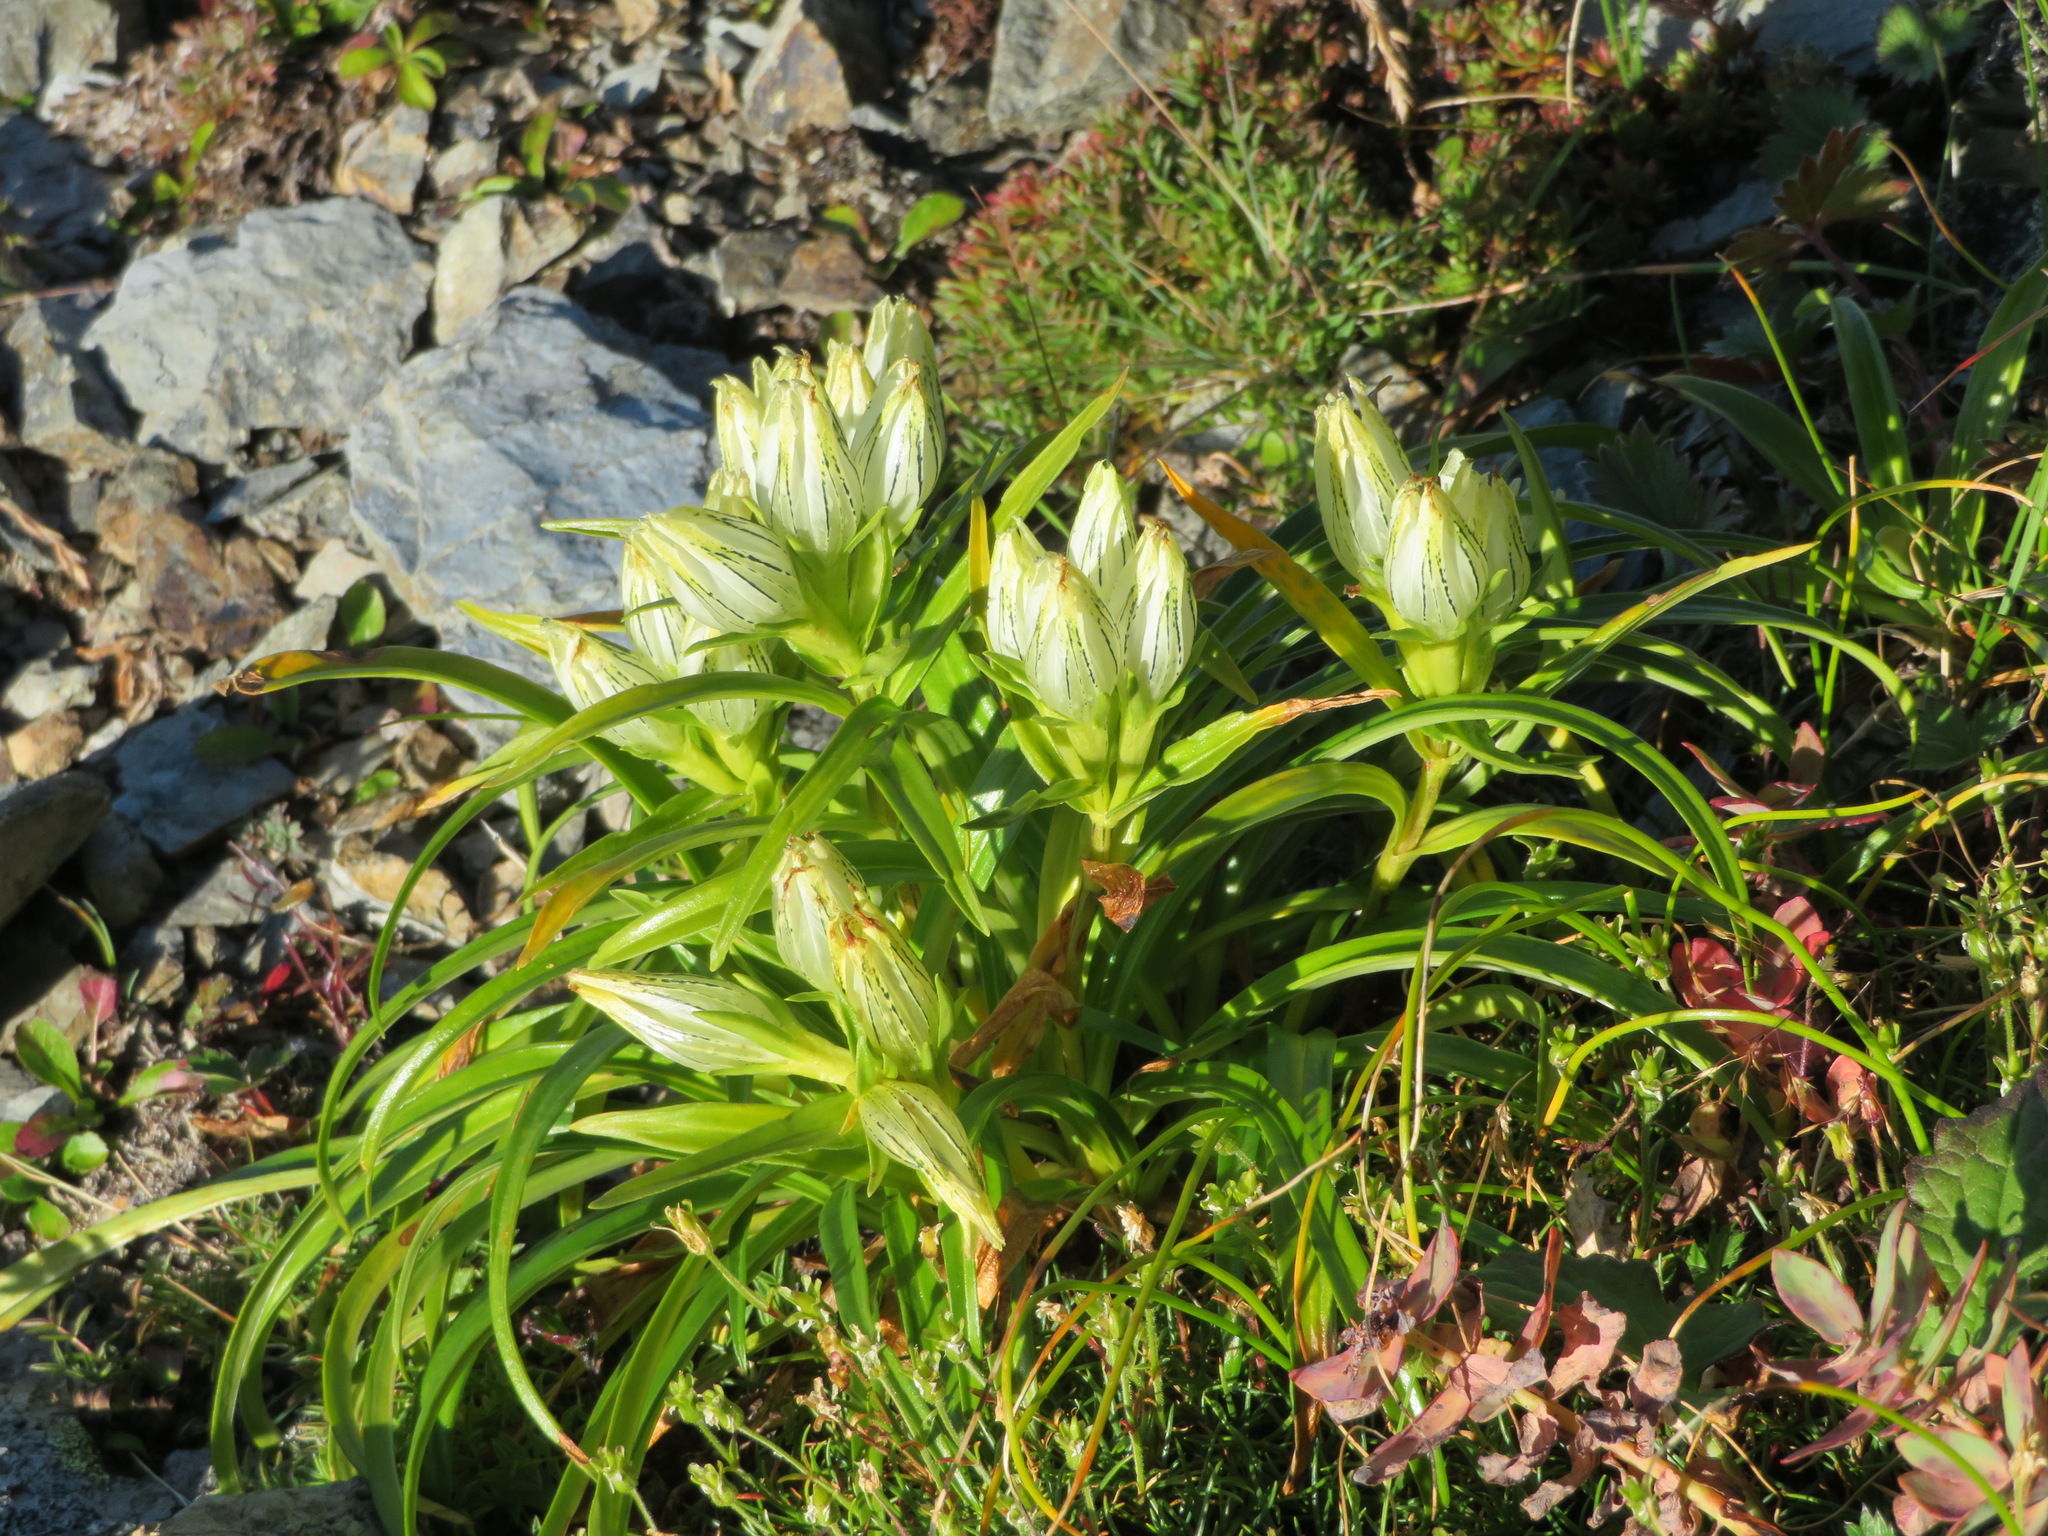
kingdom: Plantae
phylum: Tracheophyta
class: Magnoliopsida
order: Gentianales
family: Gentianaceae
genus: Gentiana
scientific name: Gentiana algida
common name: Arctic gentian
